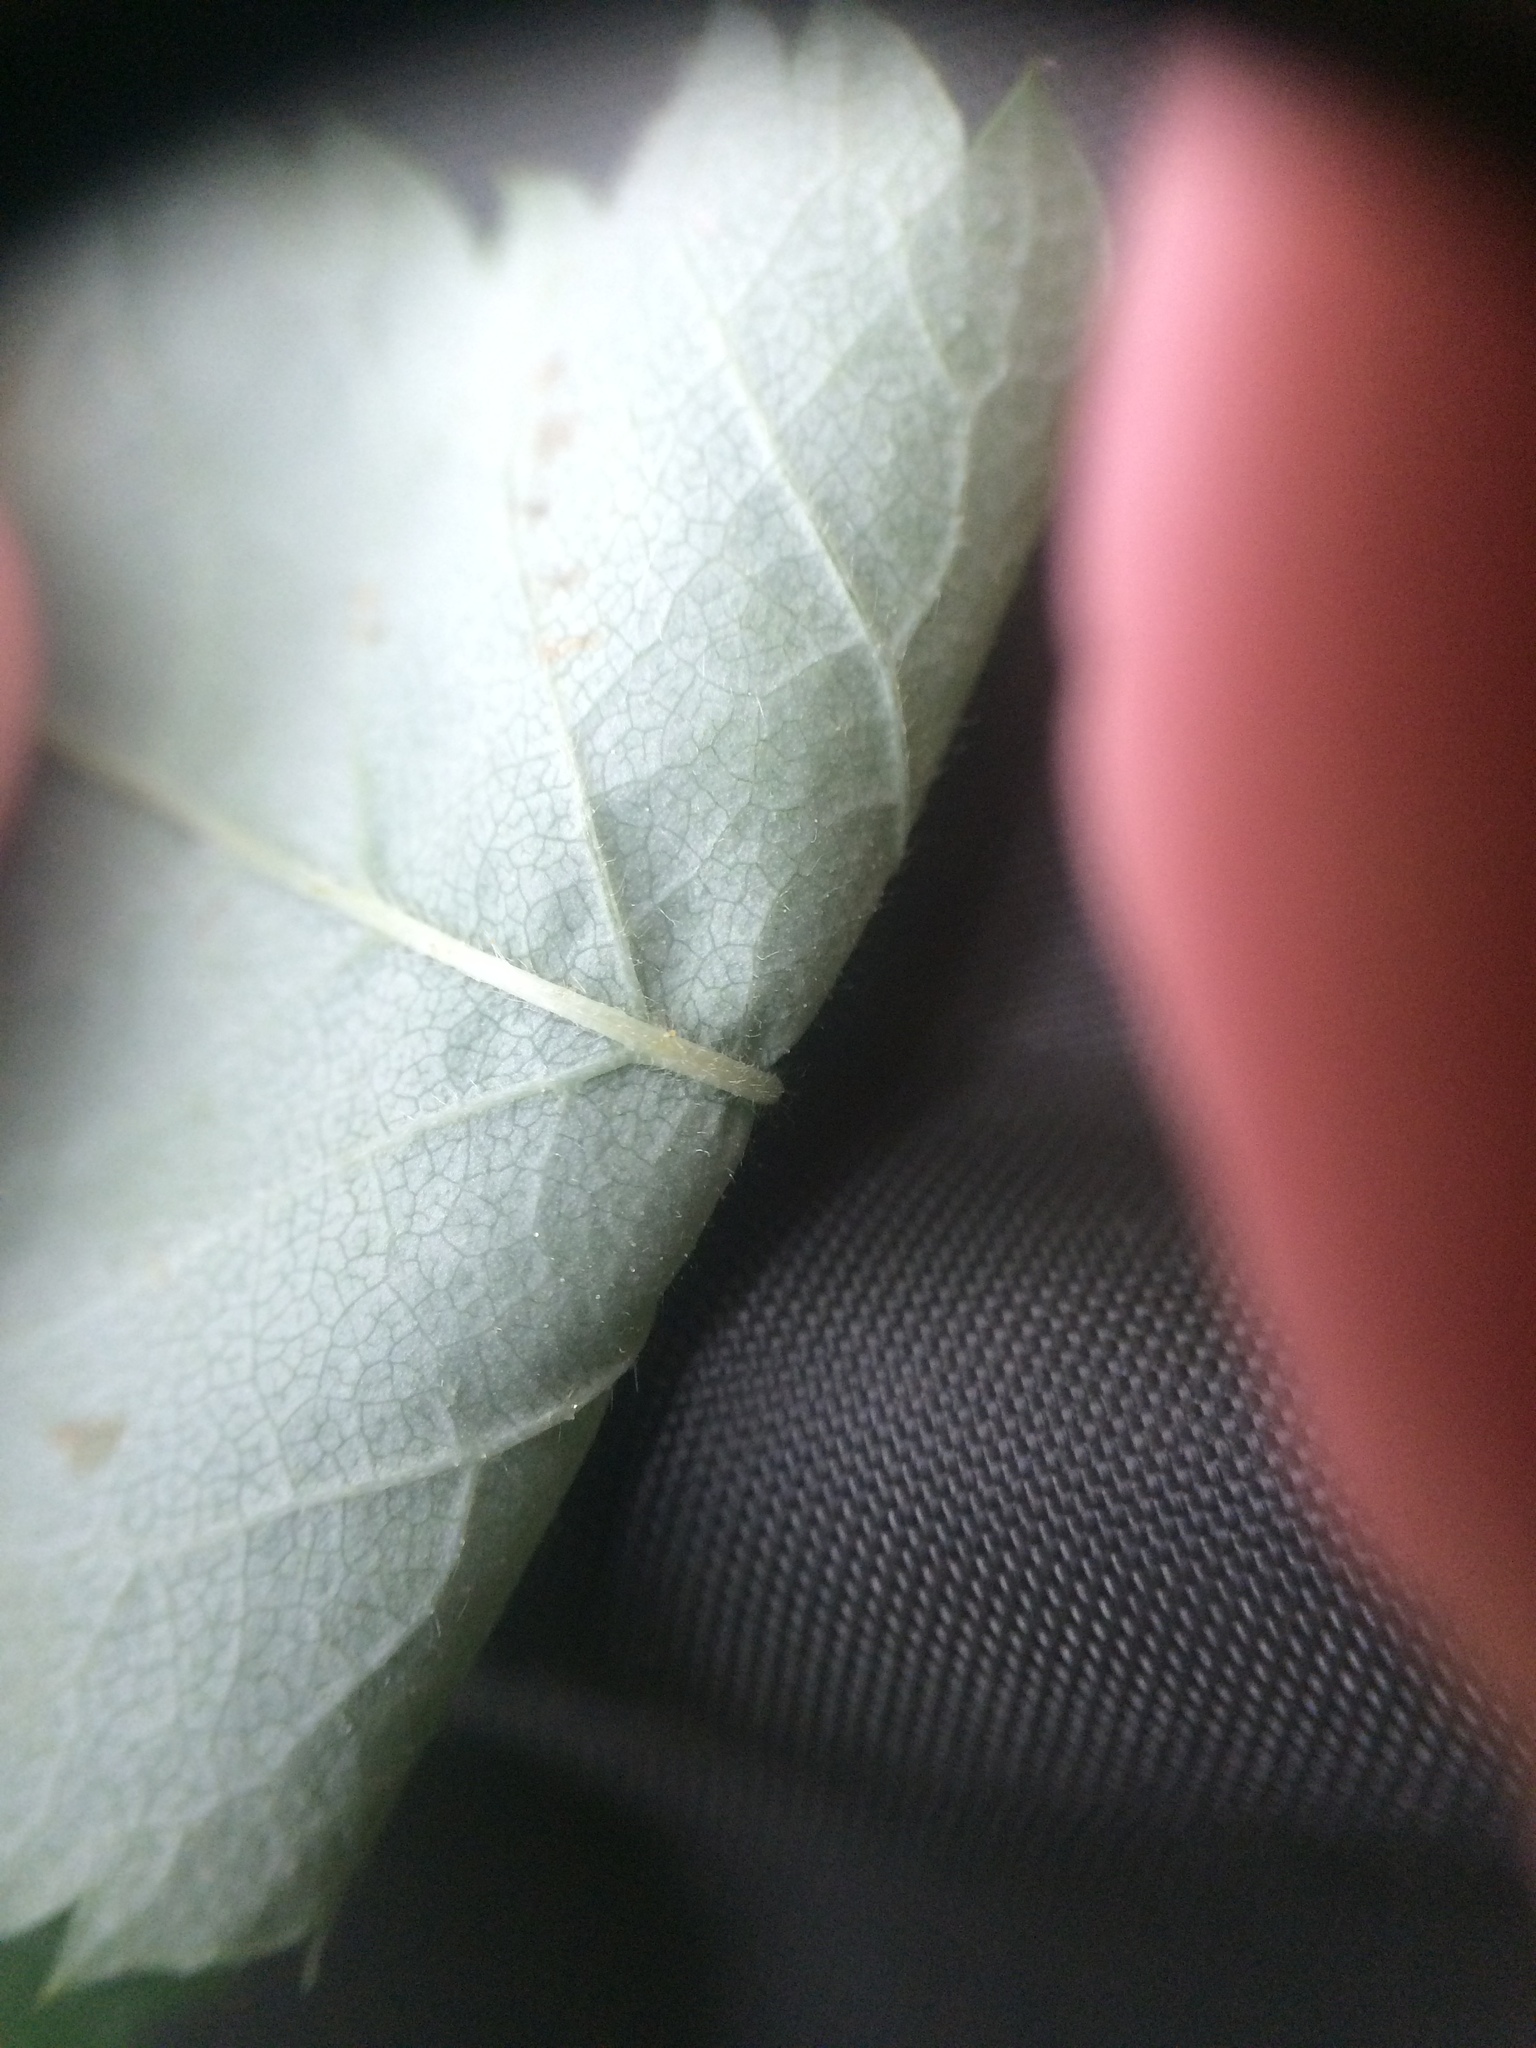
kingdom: Plantae
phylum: Tracheophyta
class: Magnoliopsida
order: Rosales
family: Rosaceae
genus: Rosa
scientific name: Rosa acicularis
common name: Prickly rose
